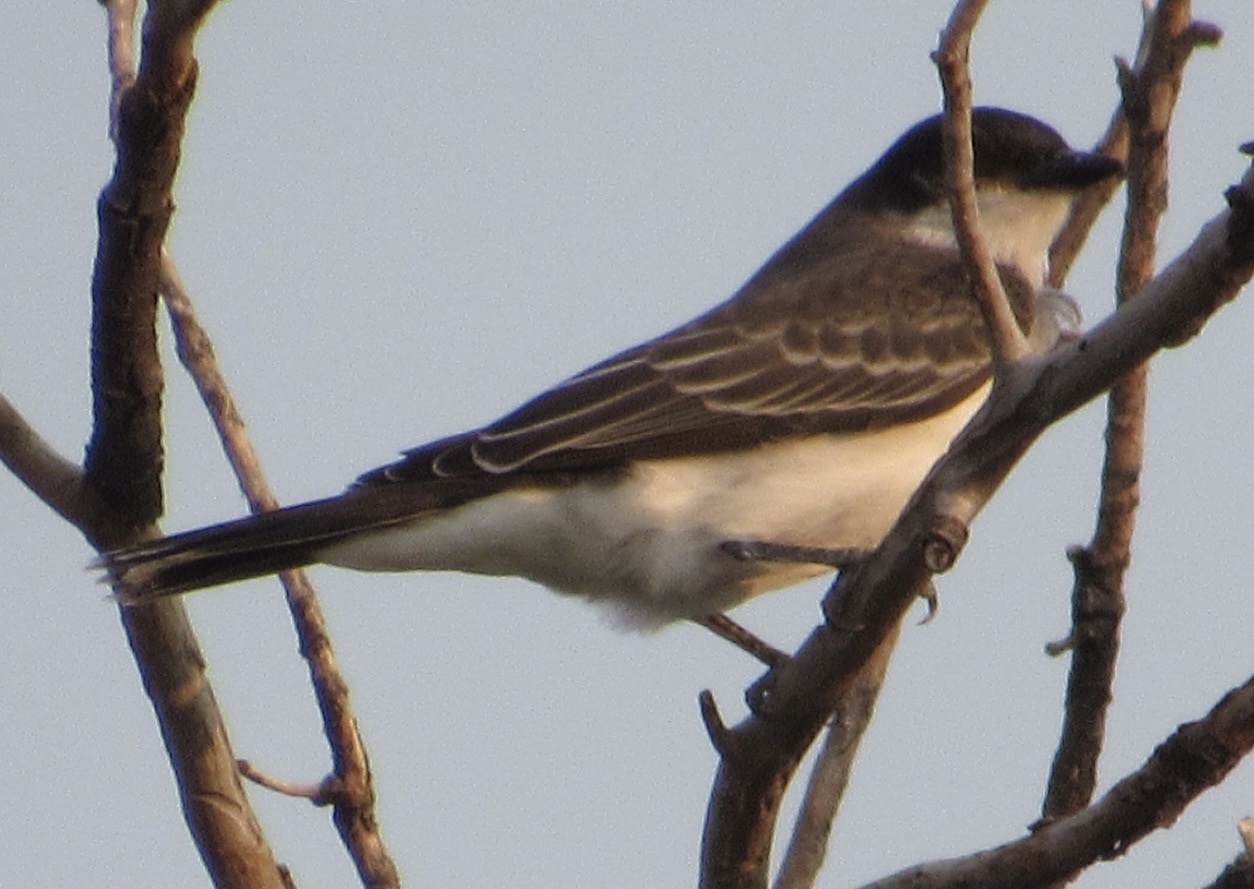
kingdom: Animalia
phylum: Chordata
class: Aves
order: Passeriformes
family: Tyrannidae
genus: Tyrannus
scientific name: Tyrannus tyrannus
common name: Eastern kingbird
